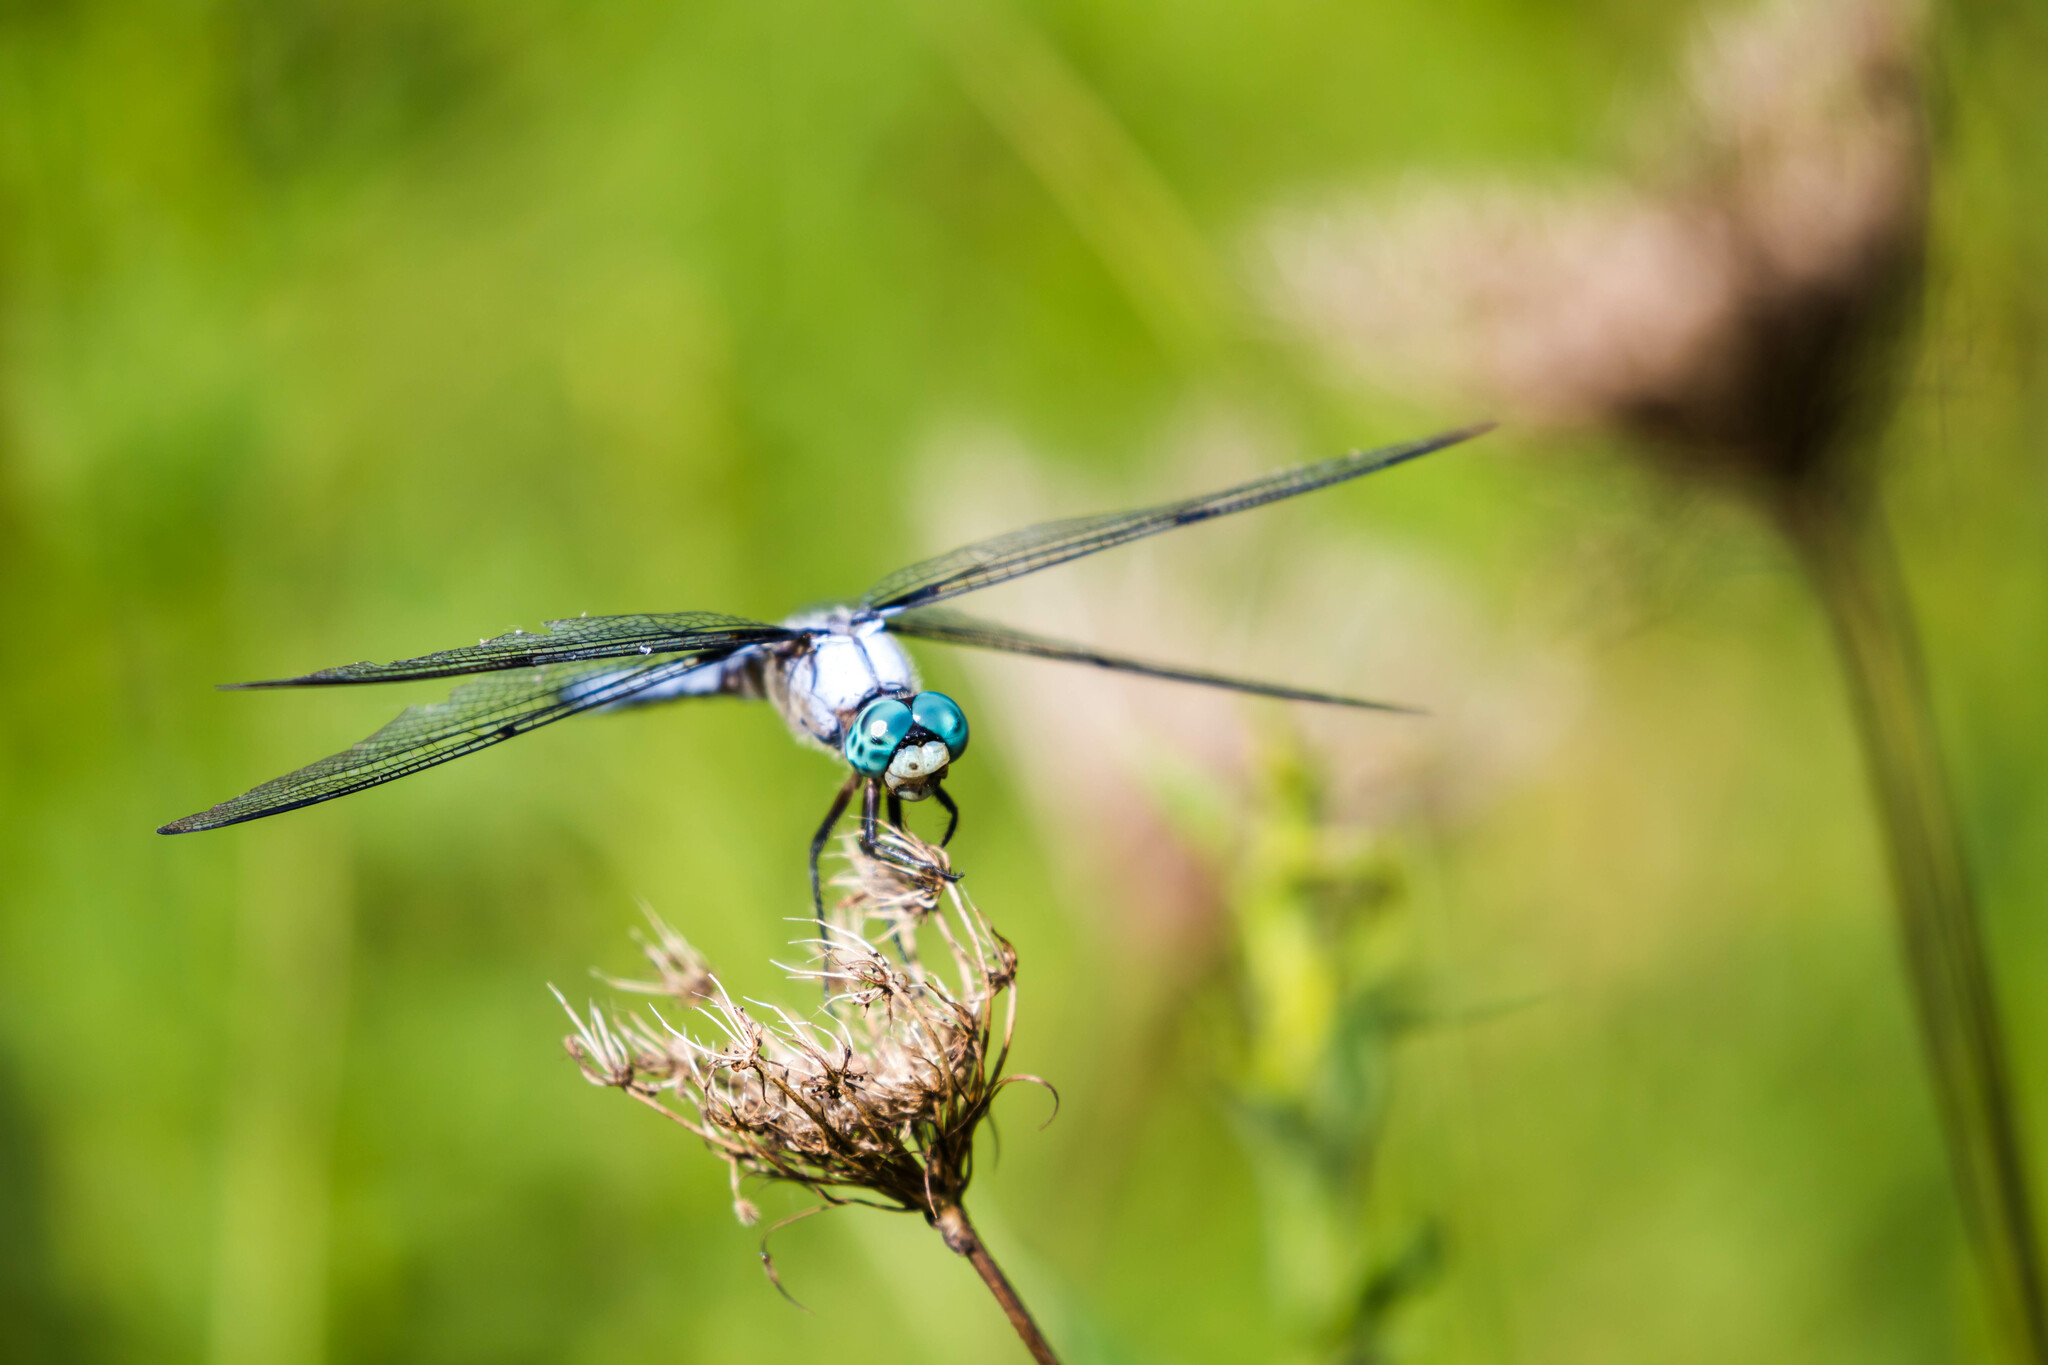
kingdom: Animalia
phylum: Arthropoda
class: Insecta
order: Odonata
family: Libellulidae
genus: Libellula
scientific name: Libellula vibrans
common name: Great blue skimmer
